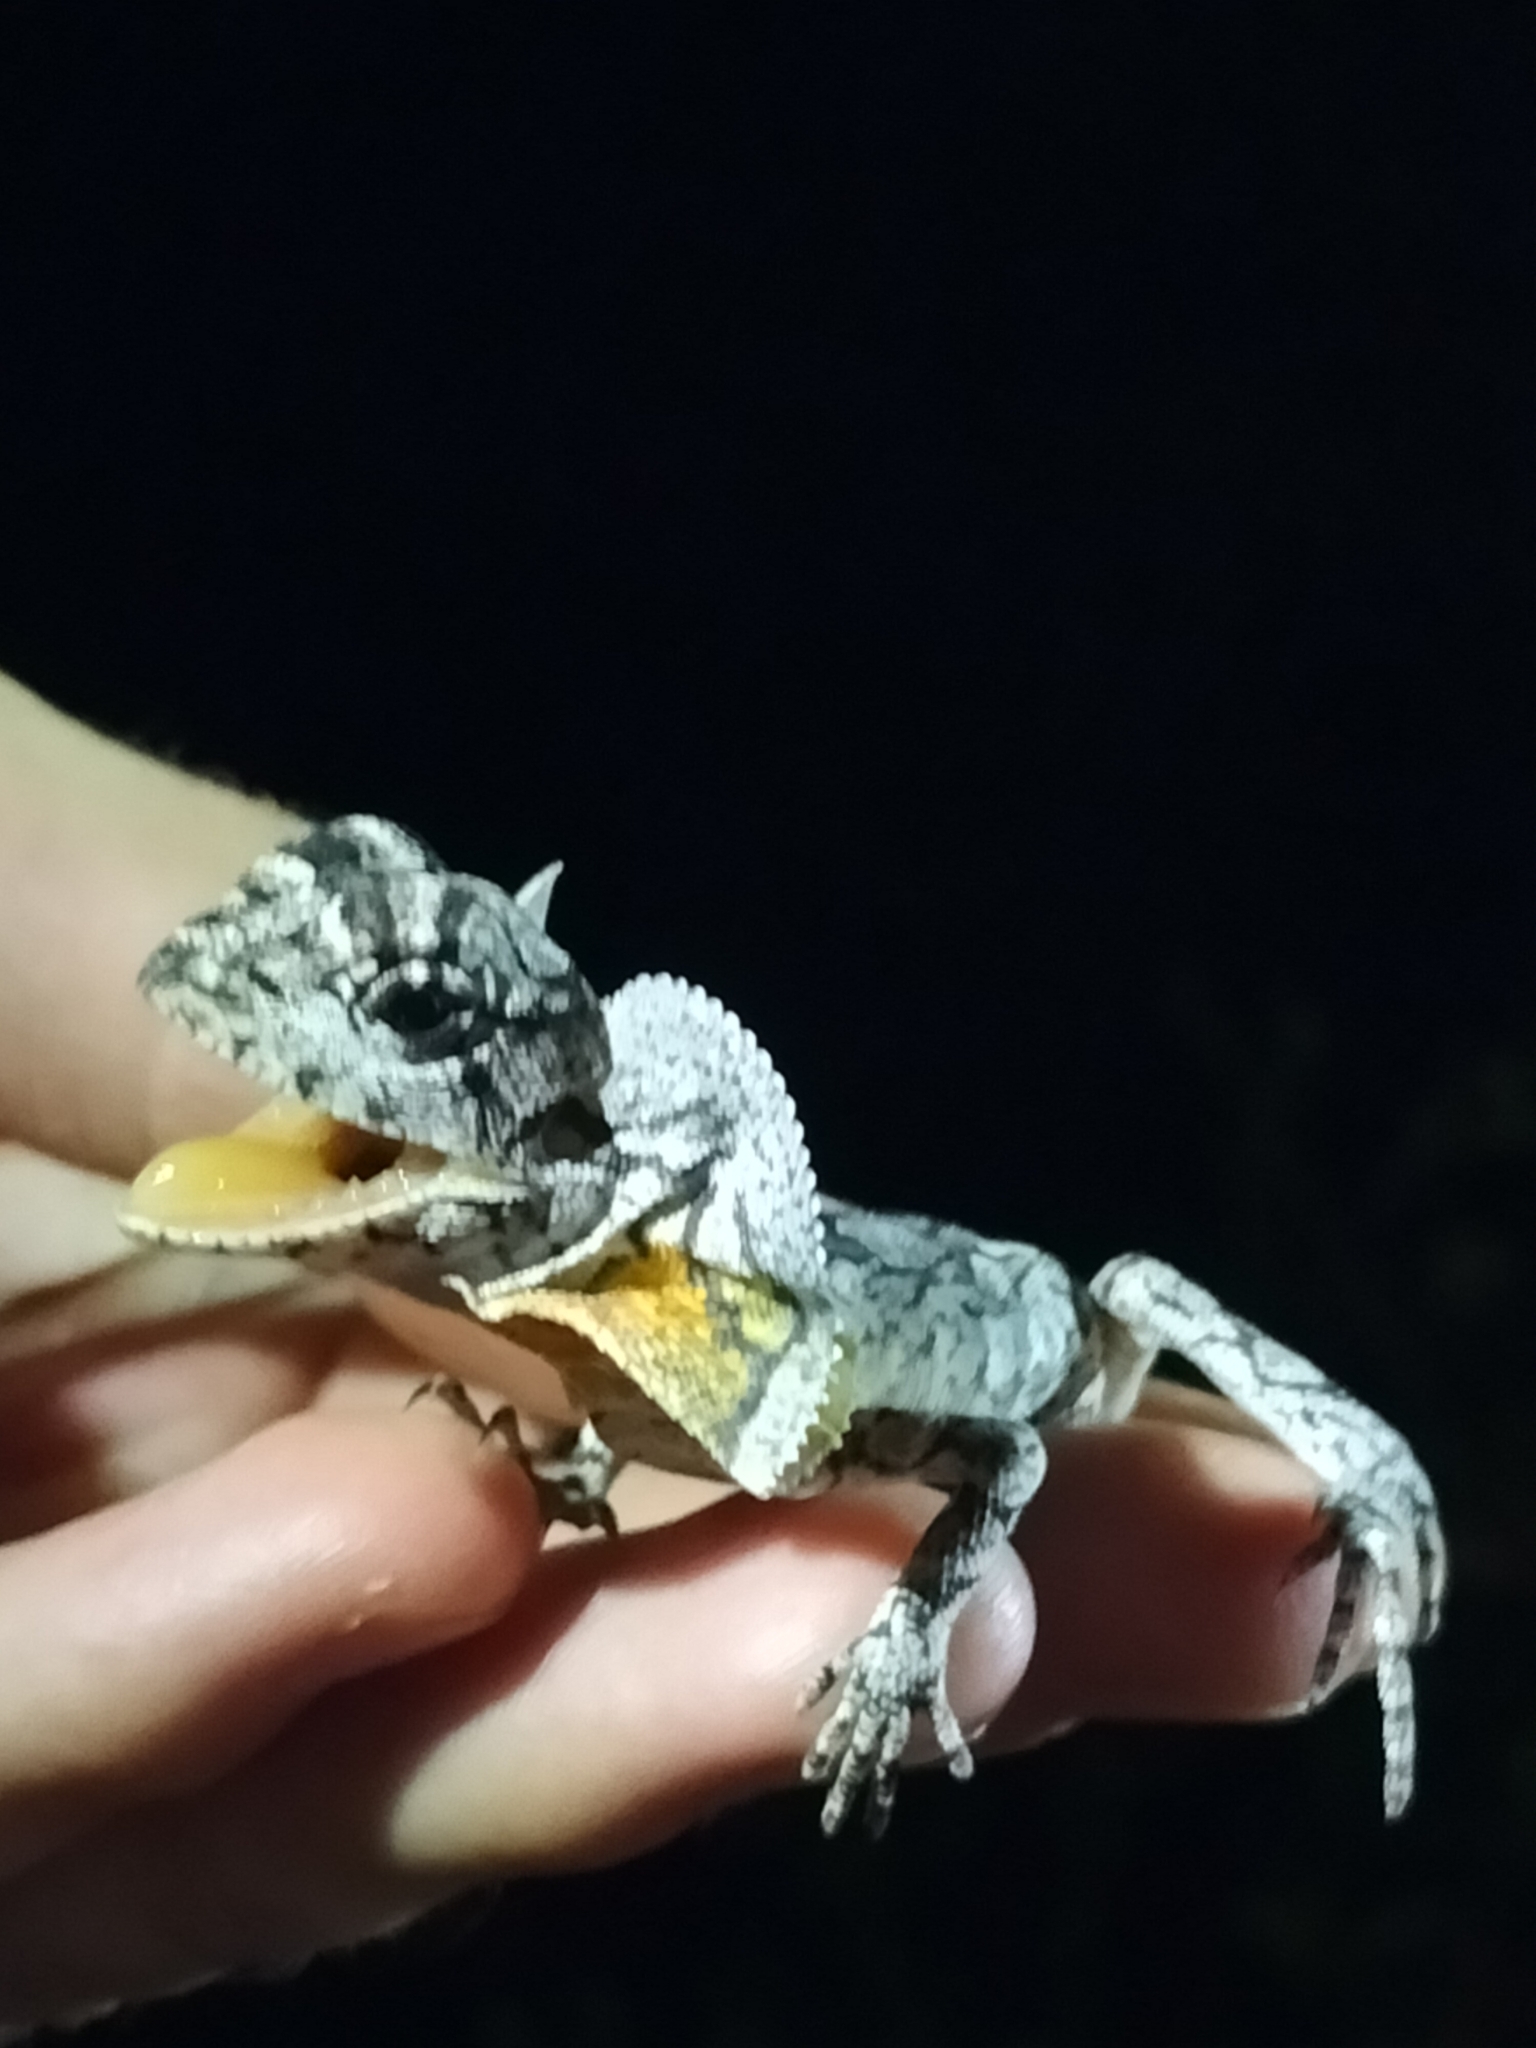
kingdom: Animalia
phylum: Chordata
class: Squamata
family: Agamidae
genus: Chlamydosaurus
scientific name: Chlamydosaurus kingii
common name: Frilled lizard
